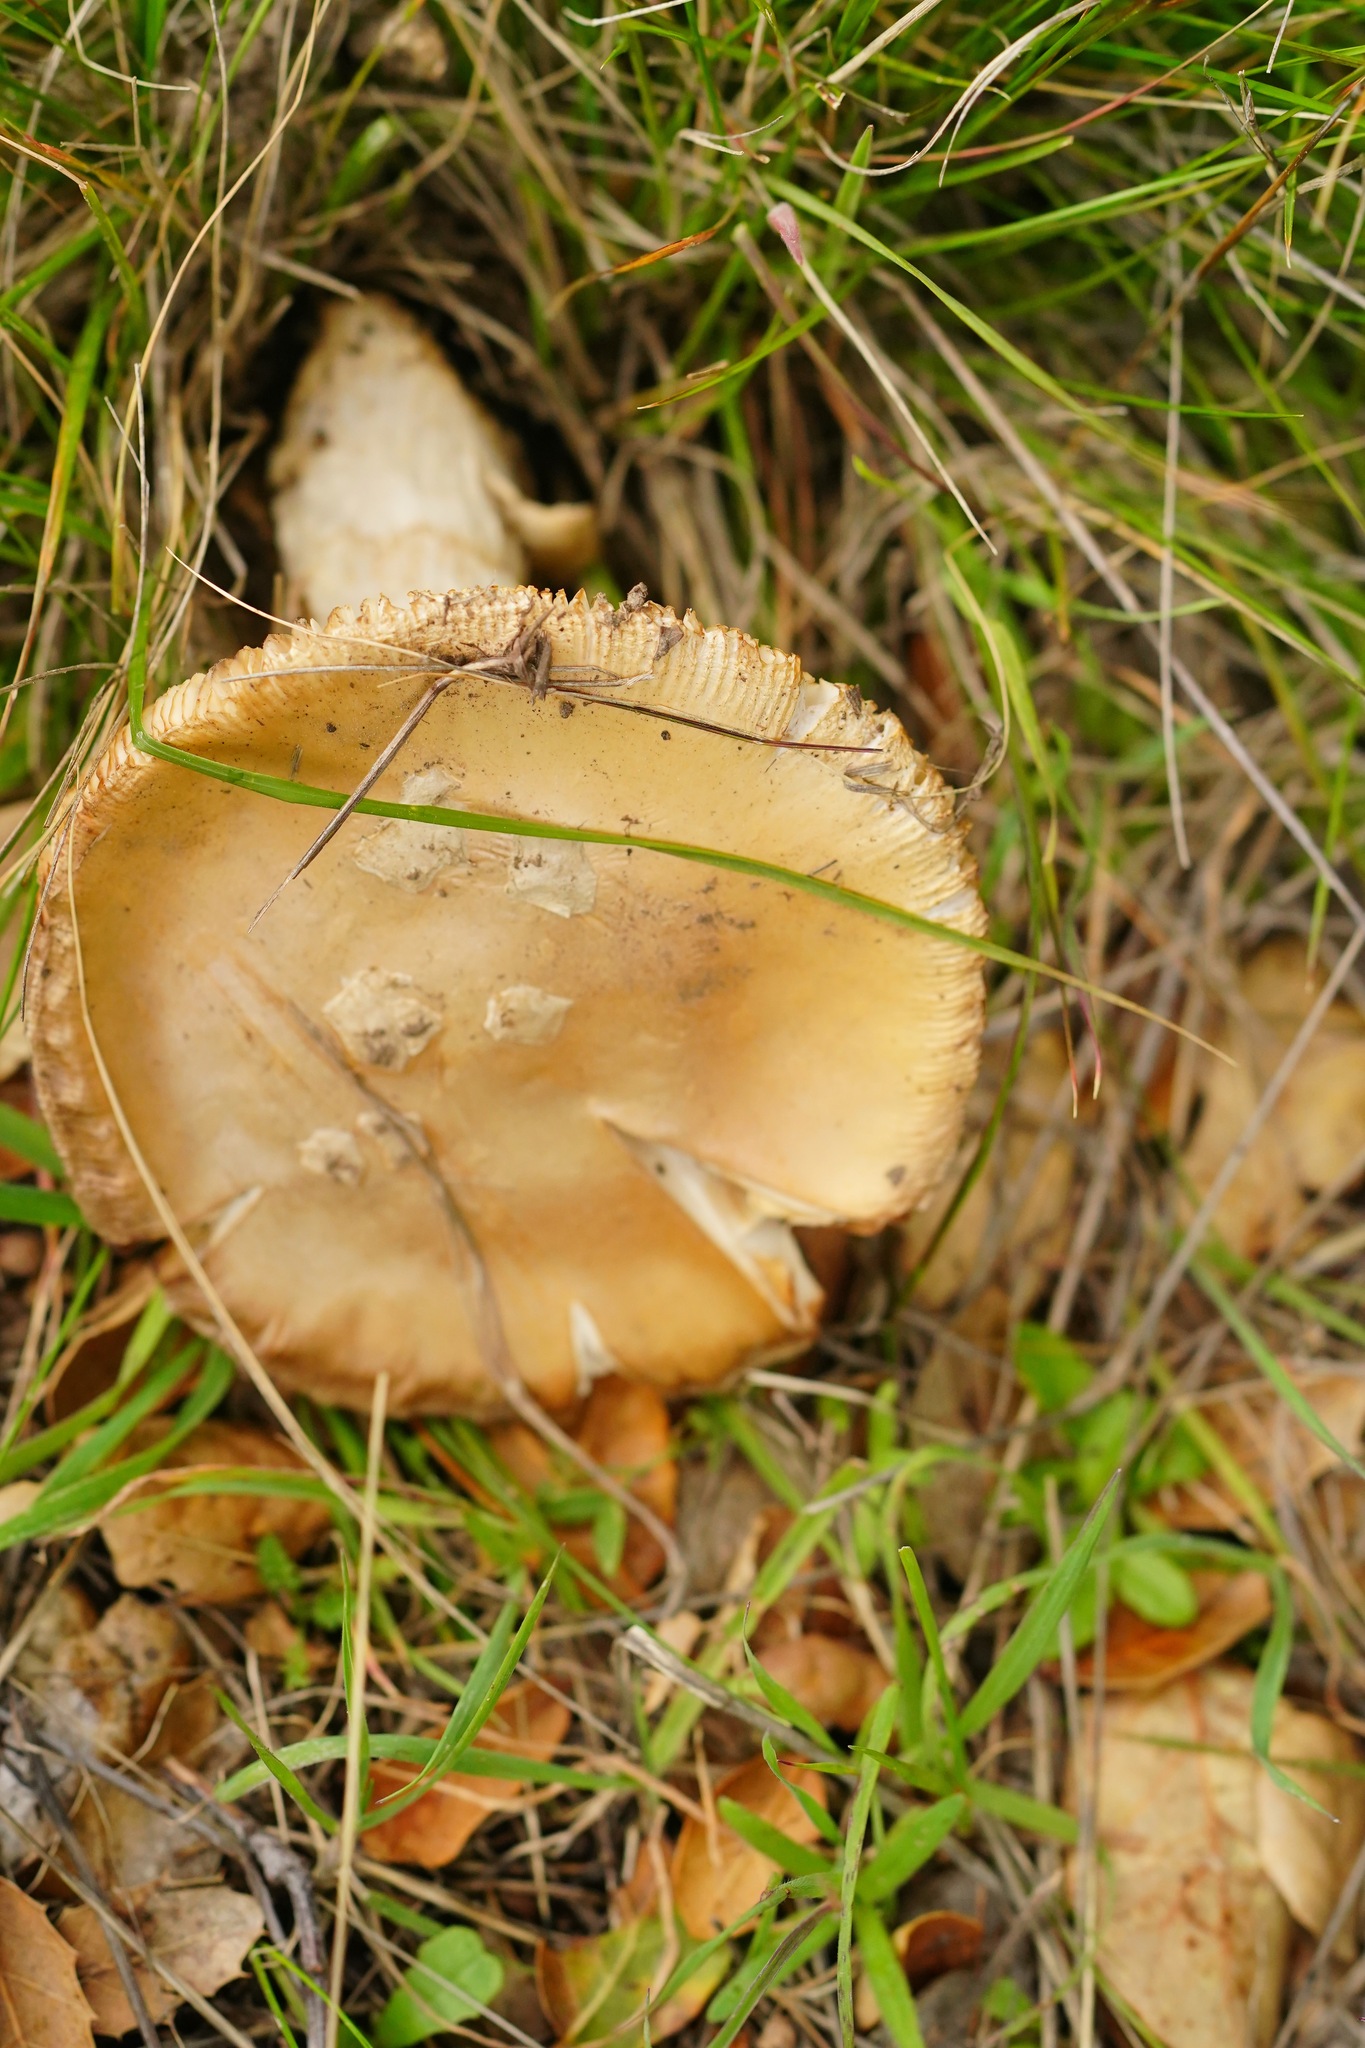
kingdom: Fungi
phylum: Basidiomycota
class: Agaricomycetes
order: Agaricales
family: Amanitaceae
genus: Amanita
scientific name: Amanita velosa
